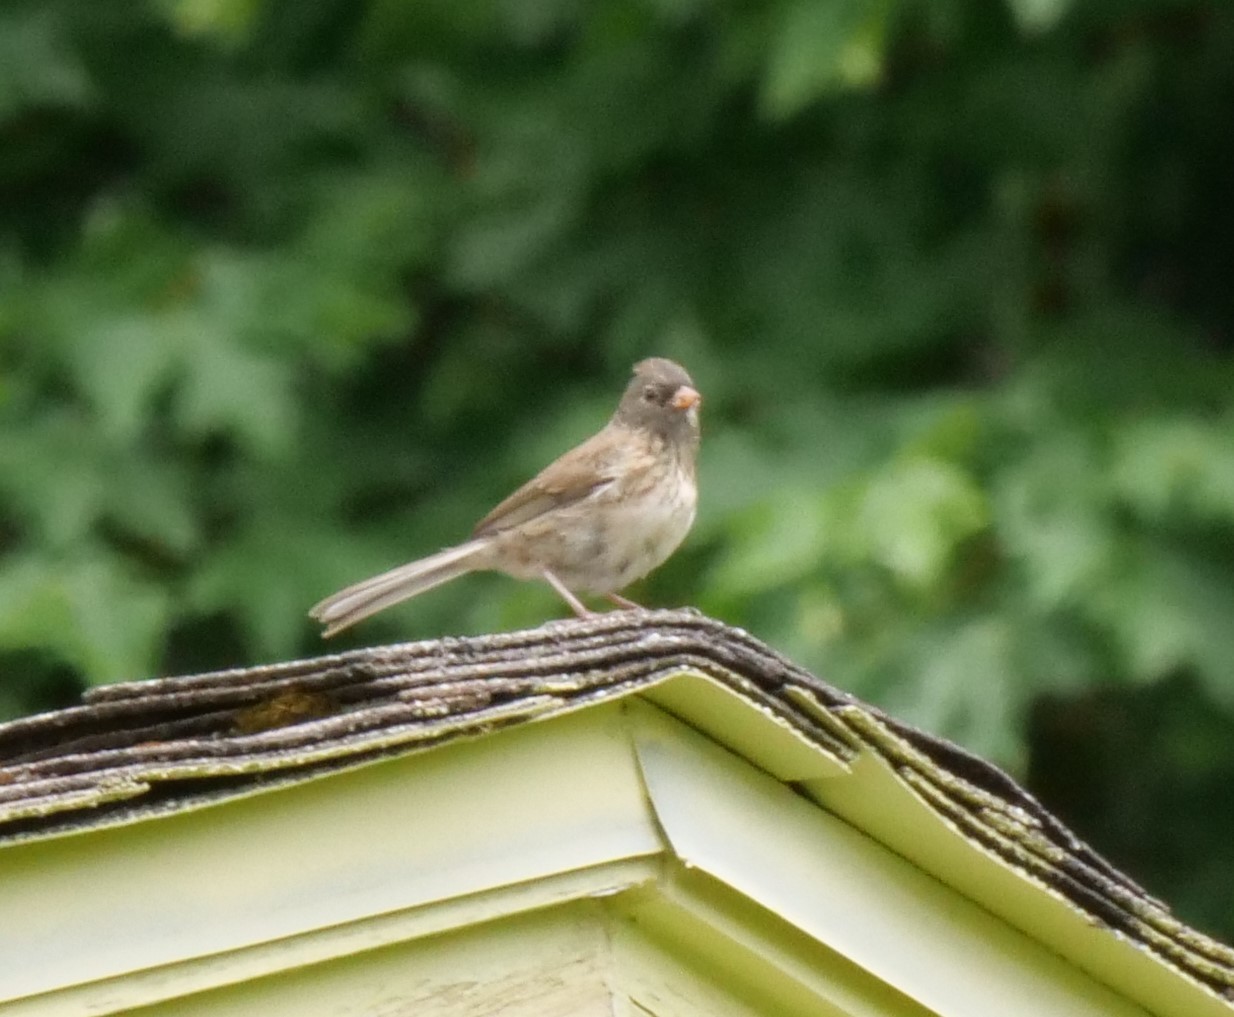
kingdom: Animalia
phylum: Chordata
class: Aves
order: Passeriformes
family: Passerellidae
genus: Junco
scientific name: Junco hyemalis
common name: Dark-eyed junco
